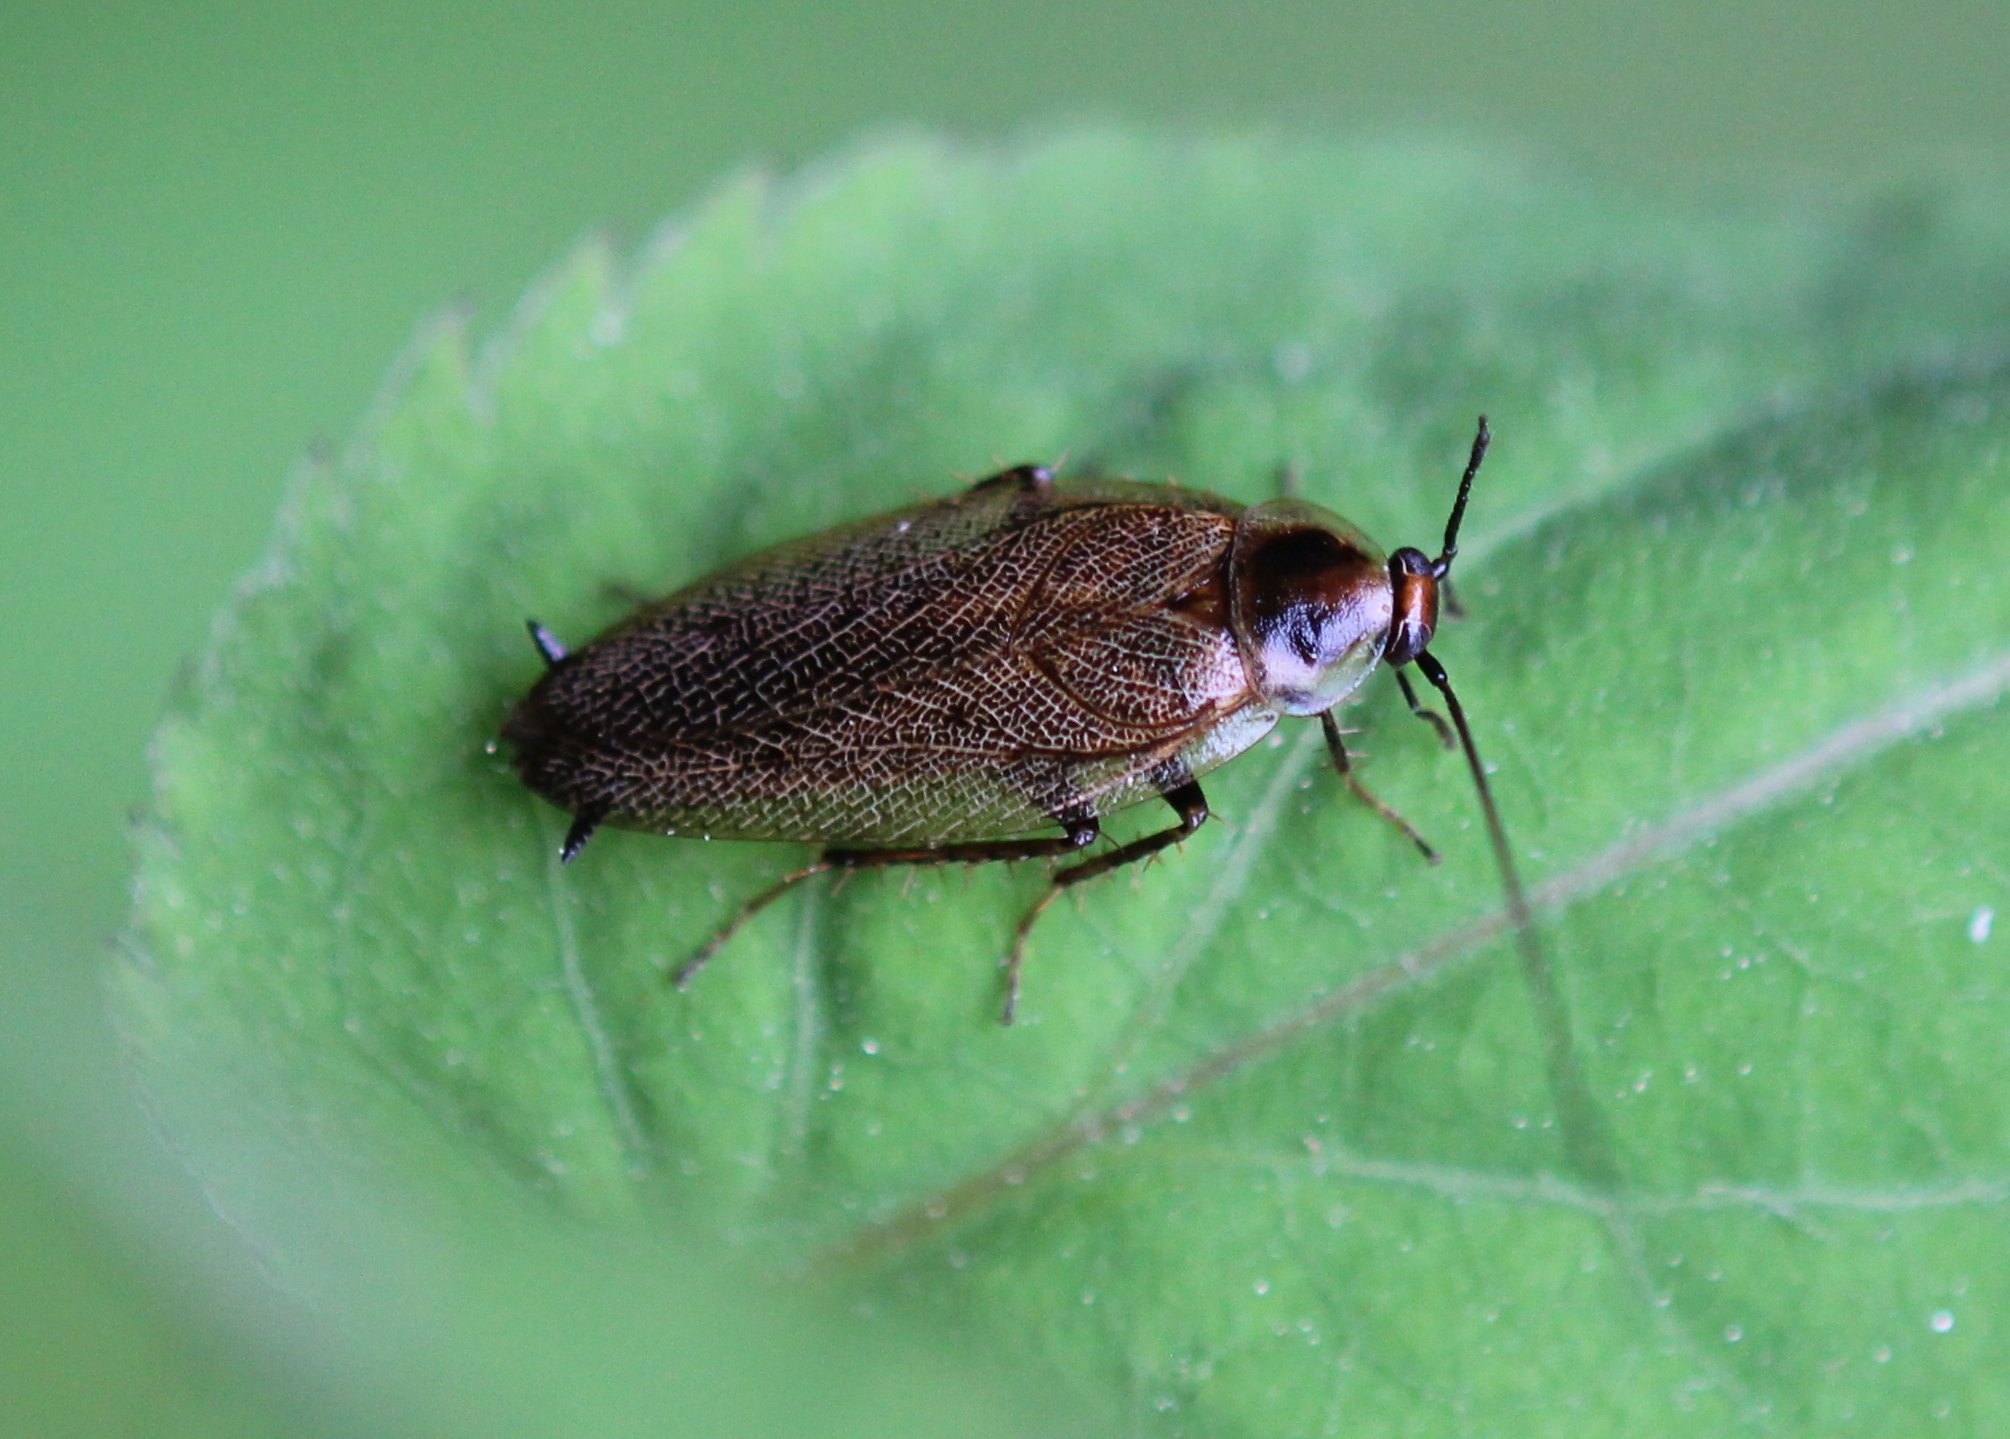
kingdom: Animalia
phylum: Arthropoda
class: Insecta
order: Blattodea
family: Ectobiidae
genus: Ectobius
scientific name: Ectobius lapponicus
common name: Dusky cockroach
